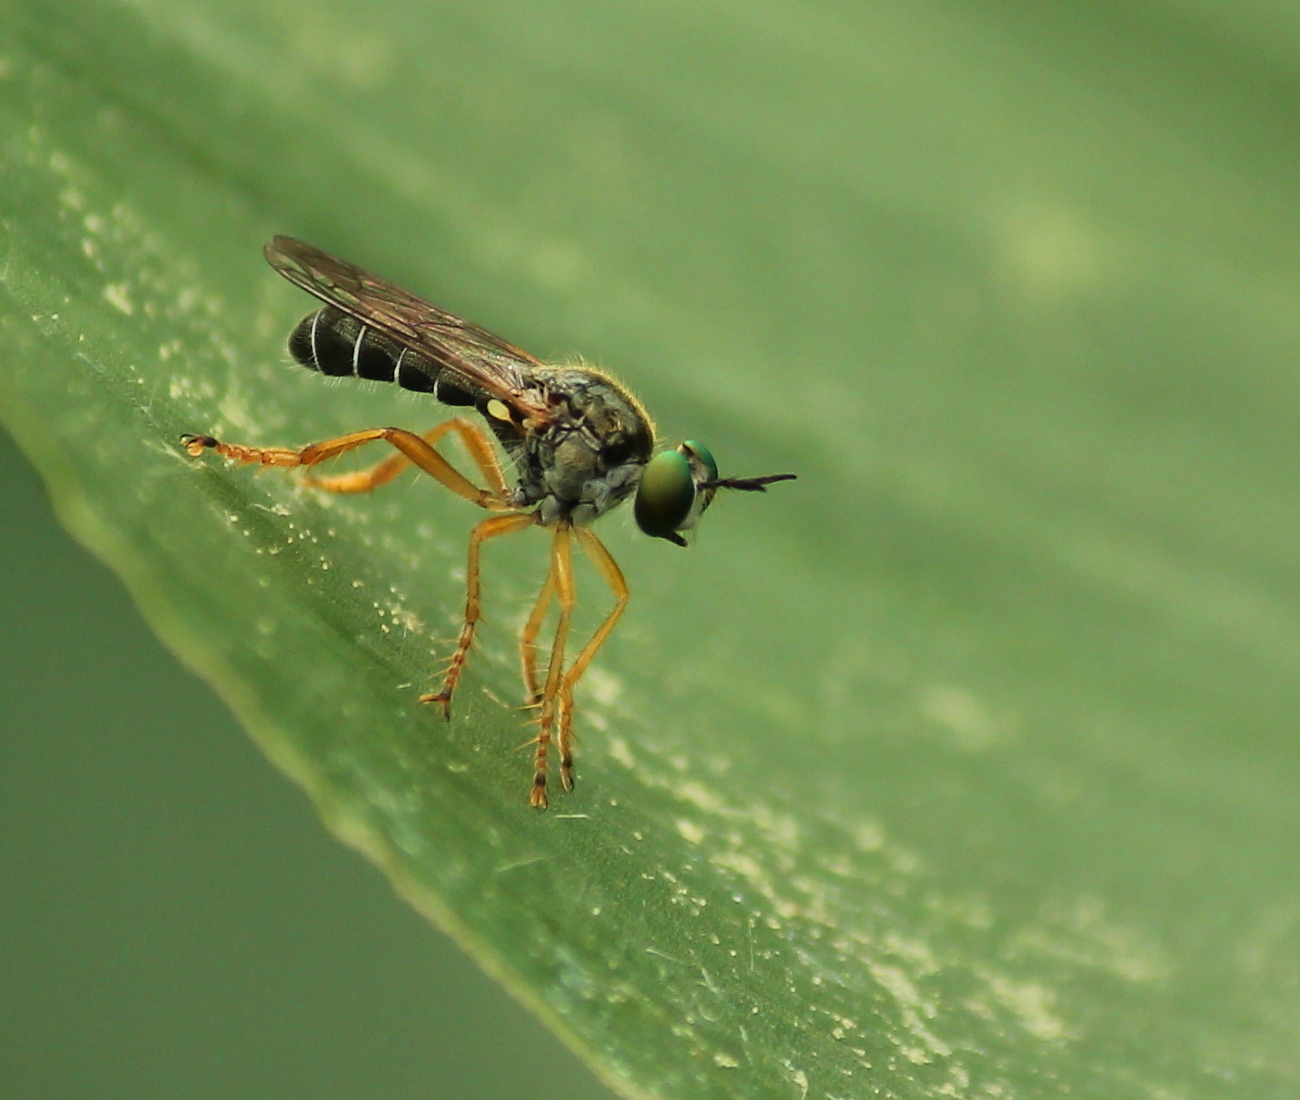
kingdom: Animalia
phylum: Arthropoda
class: Insecta
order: Diptera
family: Asilidae
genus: Atomosia
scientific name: Atomosia sayii
